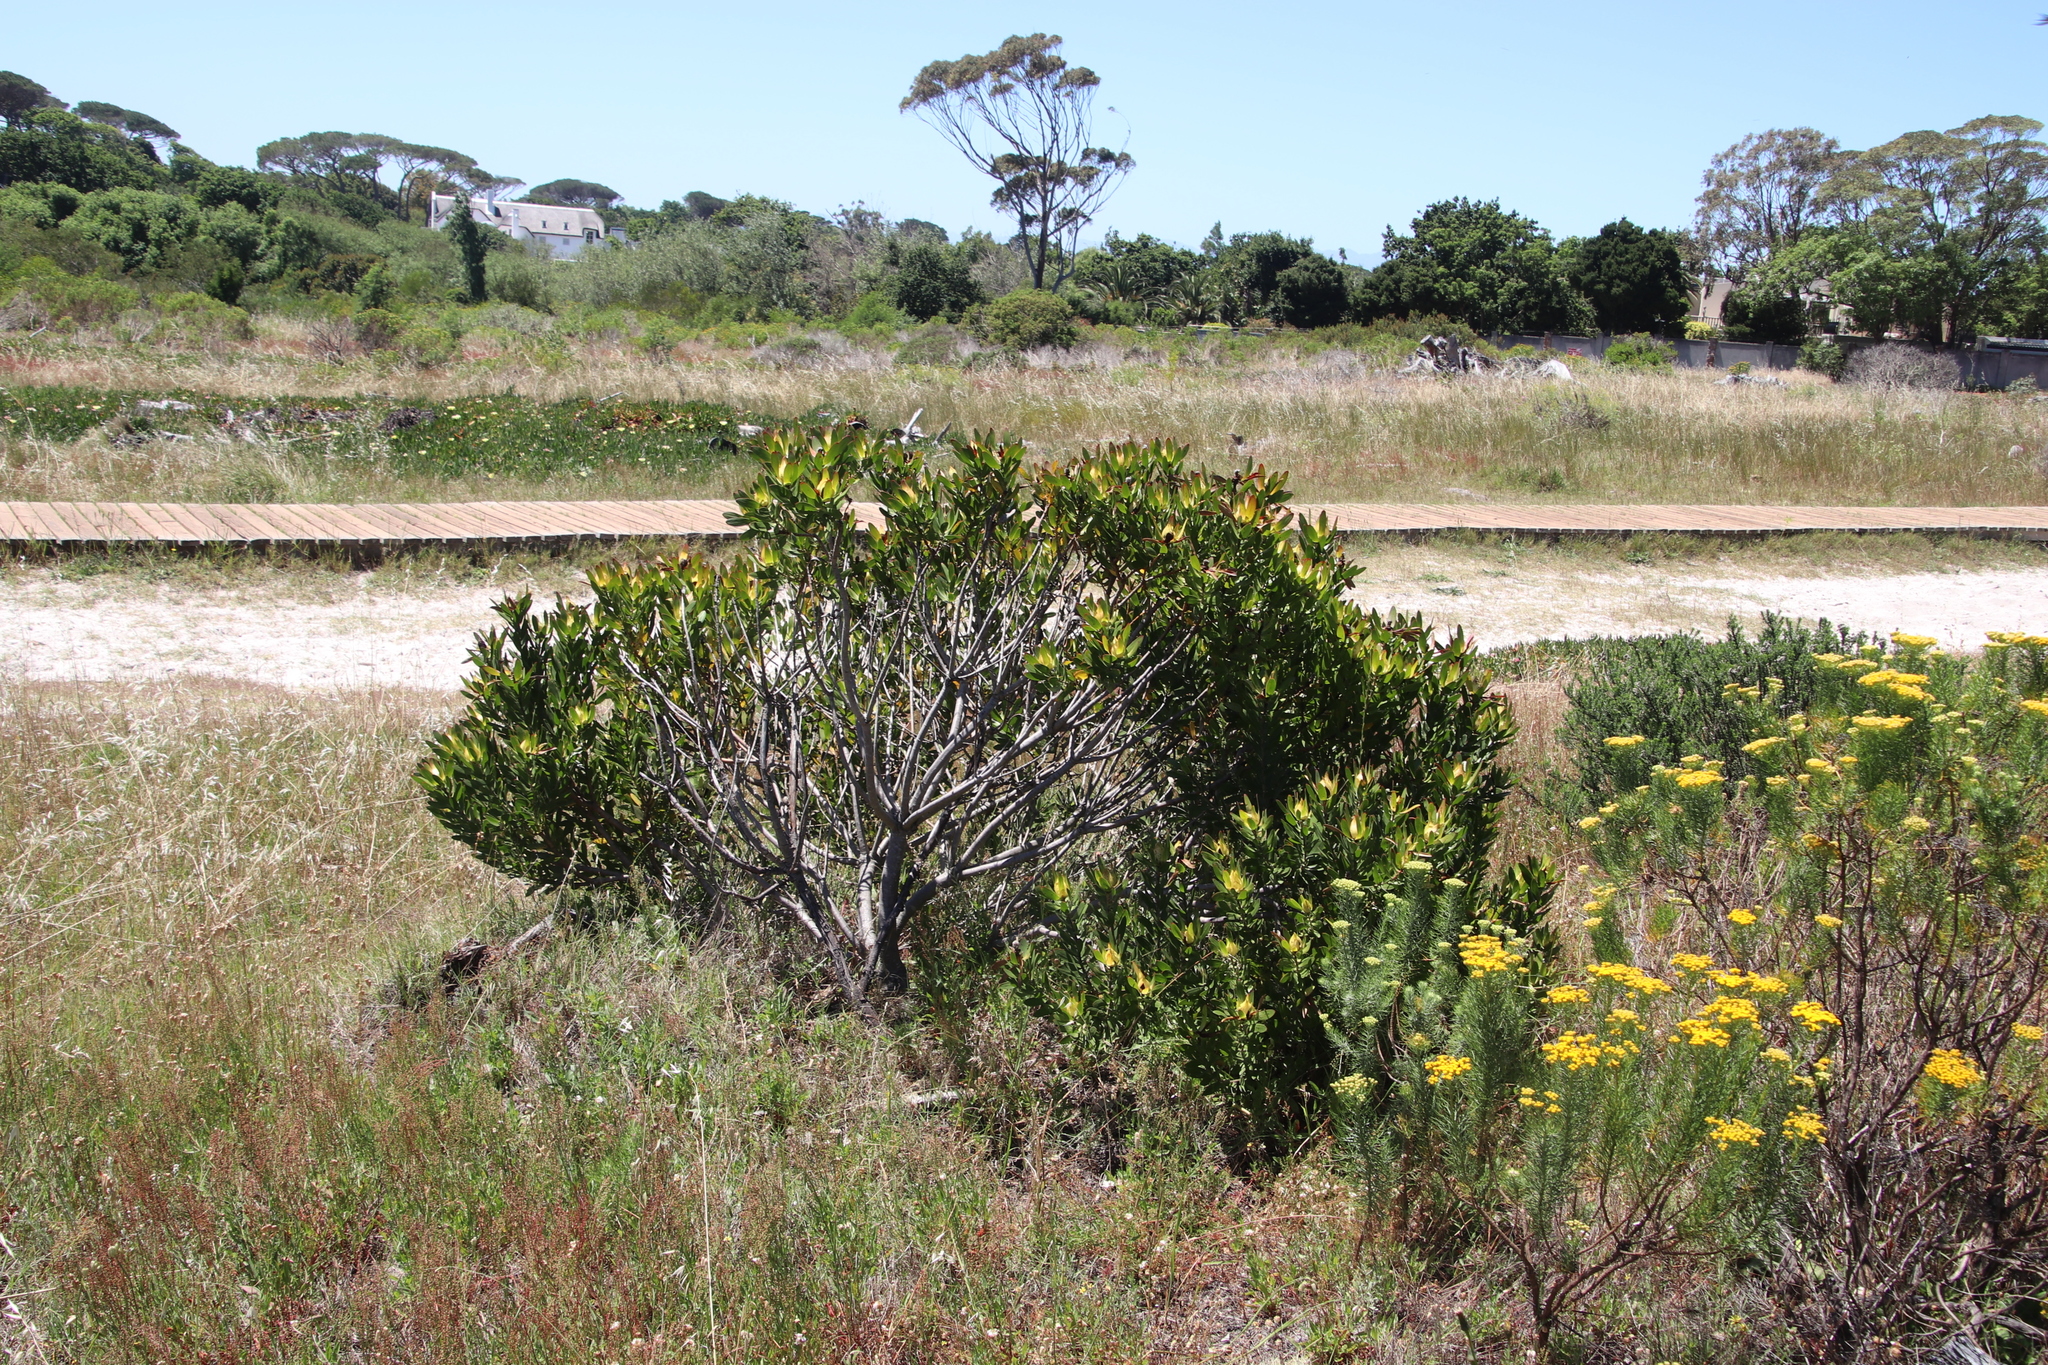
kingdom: Plantae
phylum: Tracheophyta
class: Magnoliopsida
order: Proteales
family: Proteaceae
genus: Leucadendron
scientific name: Leucadendron laureolum
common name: Golden sunshinebush
